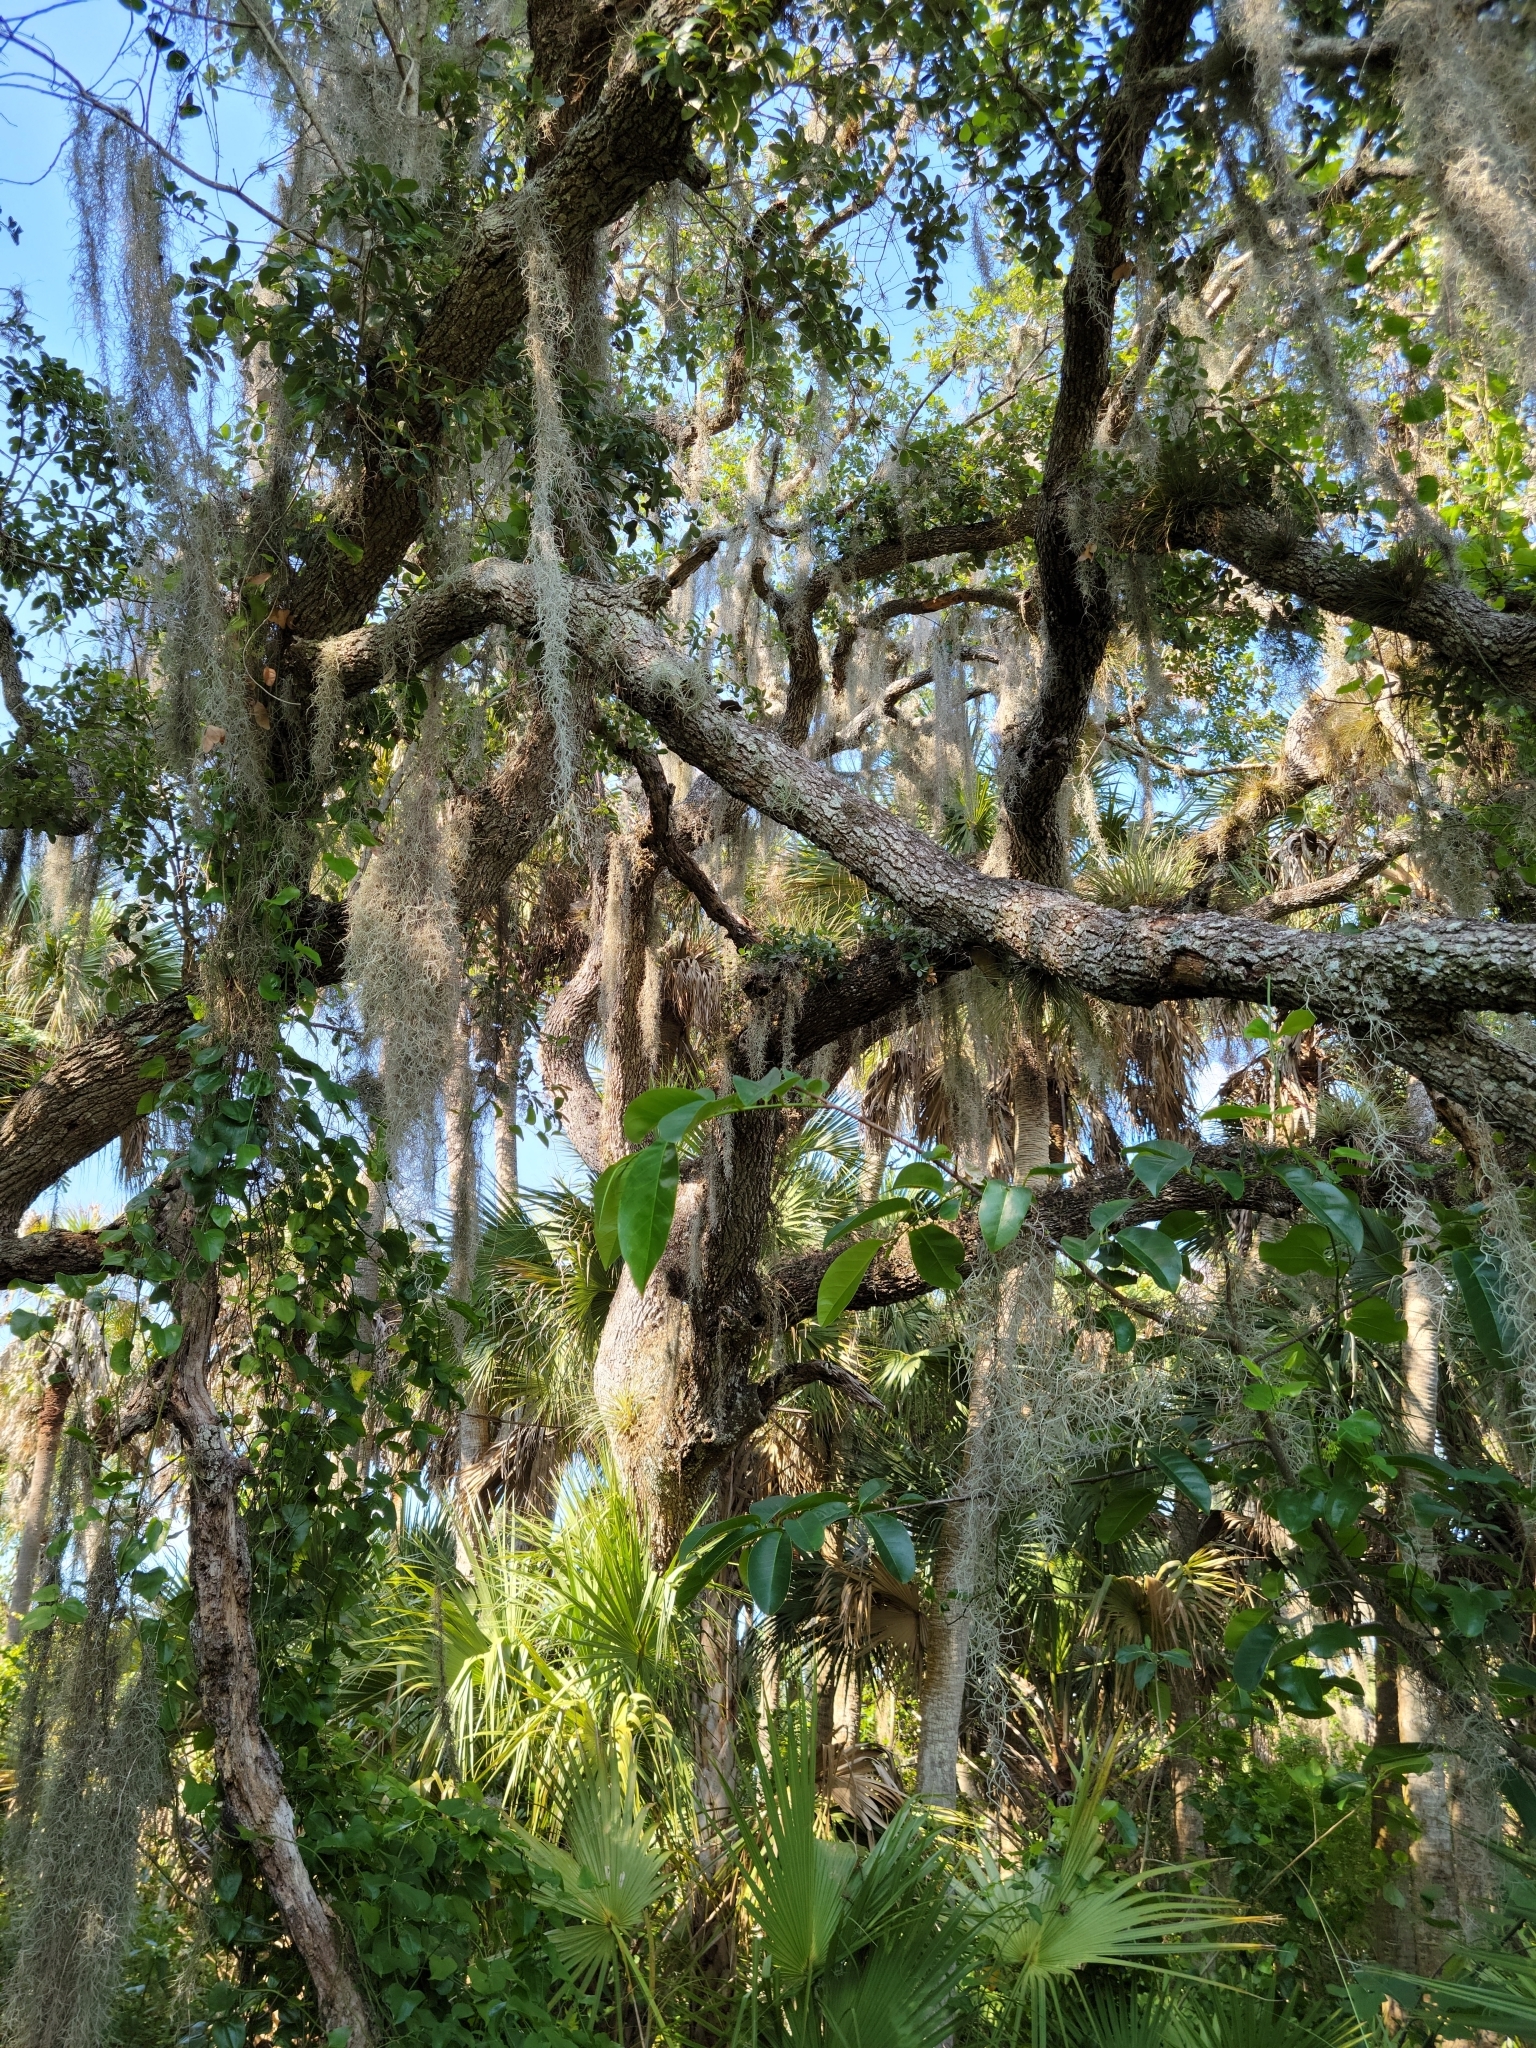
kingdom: Plantae
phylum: Tracheophyta
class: Magnoliopsida
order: Fagales
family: Fagaceae
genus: Quercus
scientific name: Quercus virginiana
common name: Southern live oak
